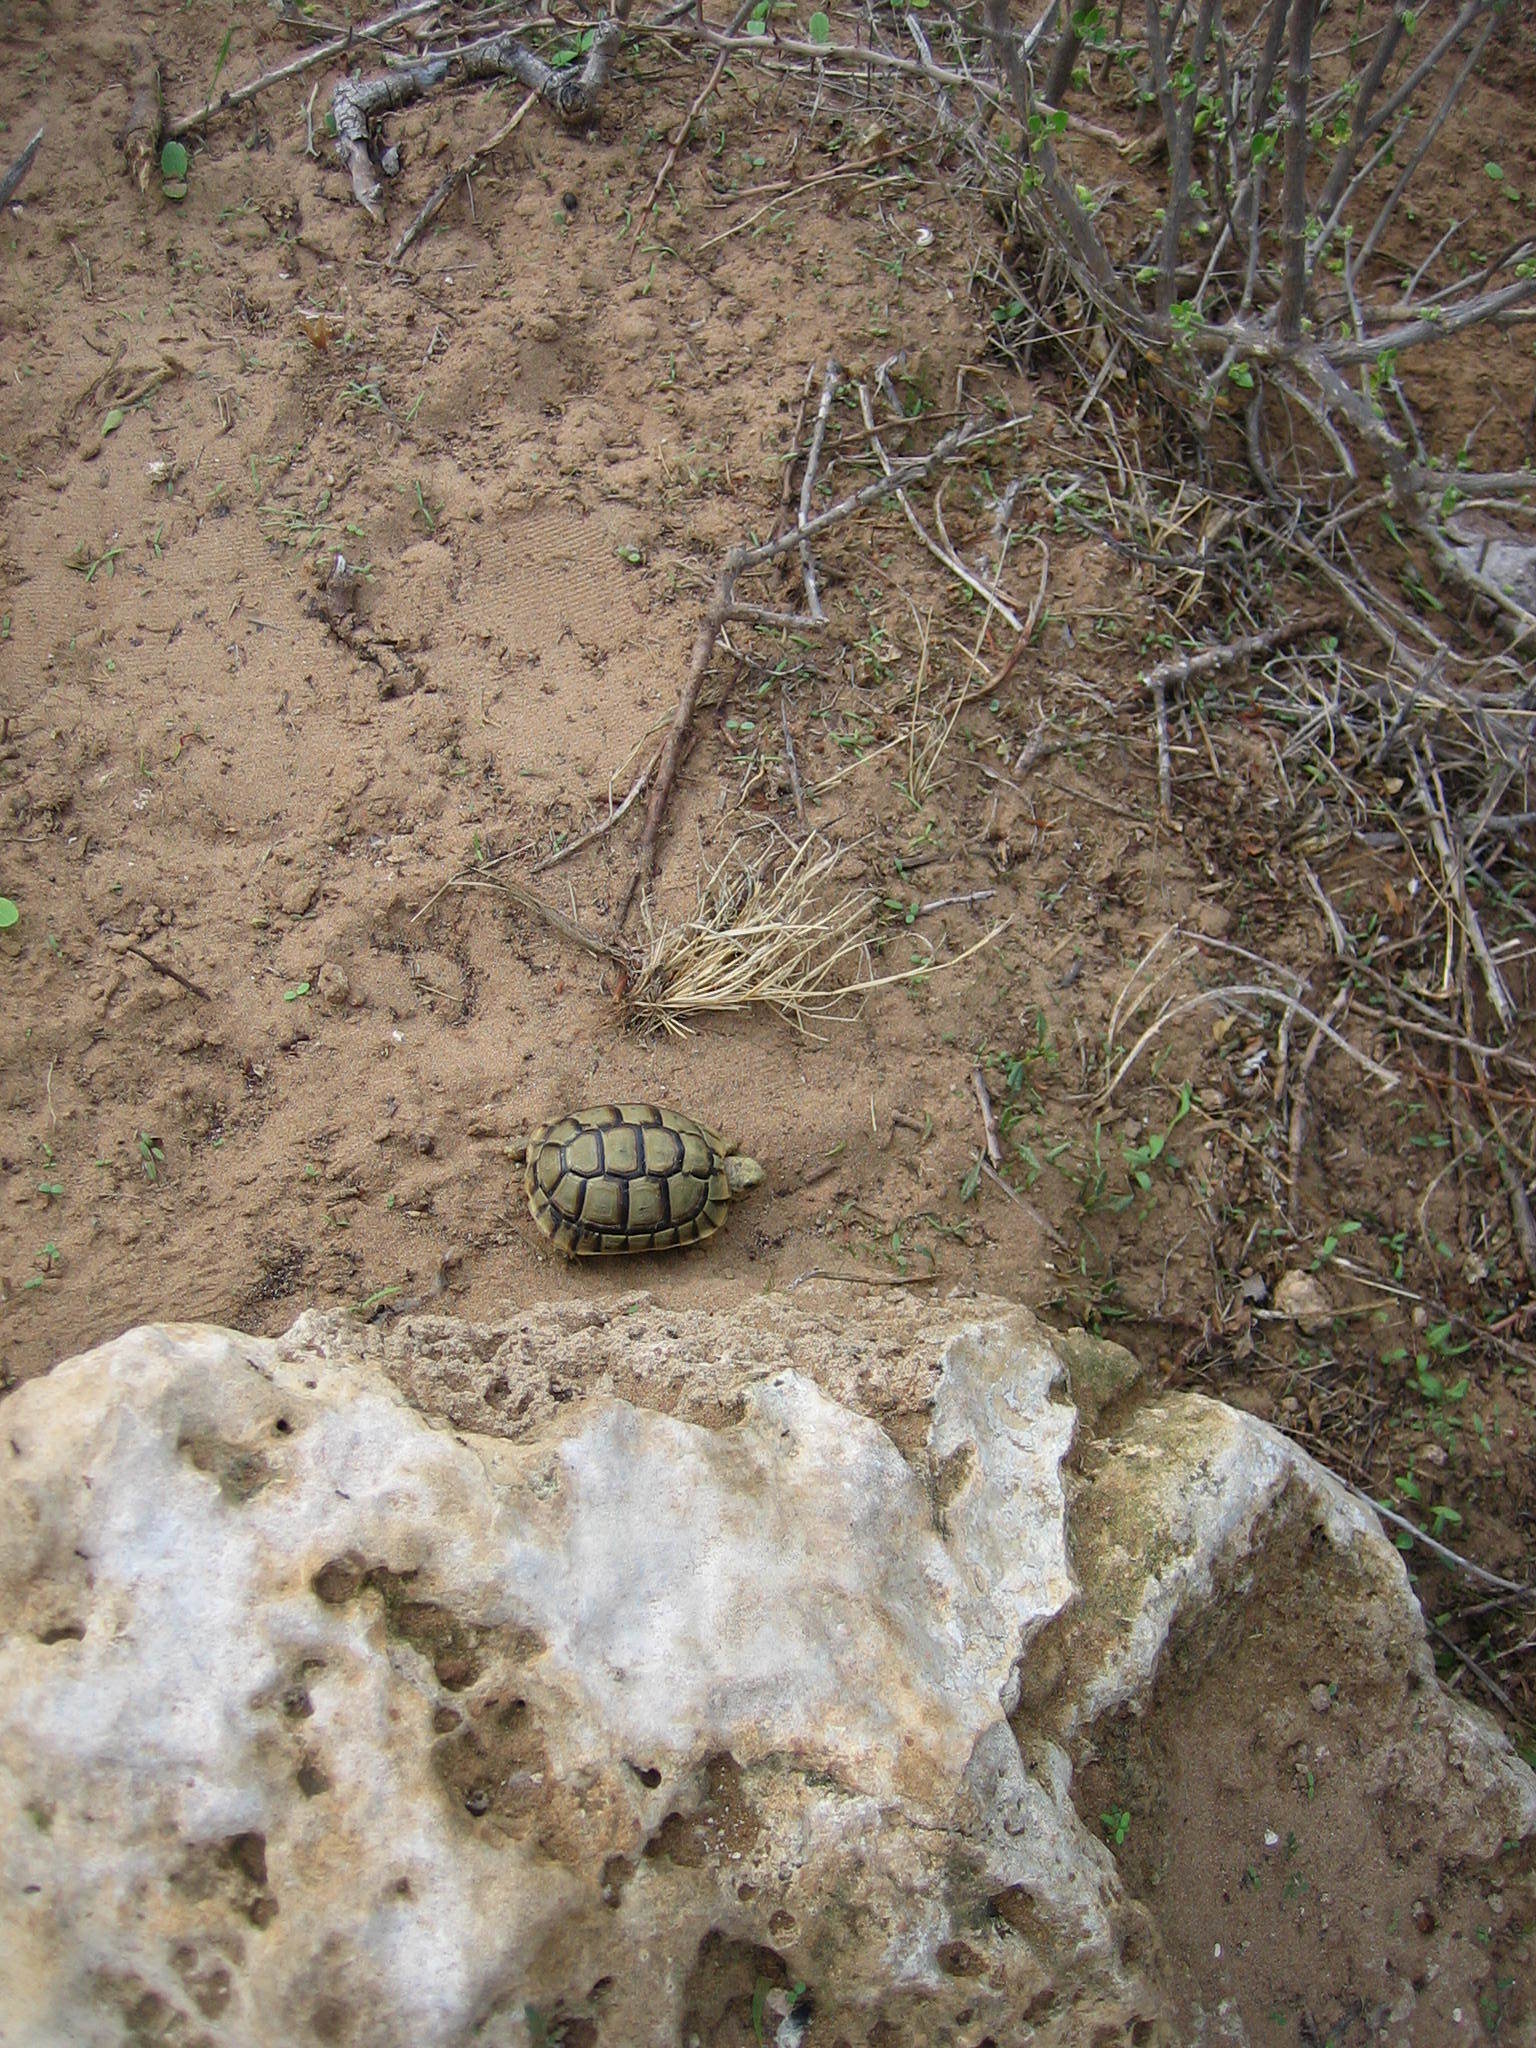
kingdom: Animalia
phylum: Chordata
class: Testudines
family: Testudinidae
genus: Testudo
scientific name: Testudo graeca
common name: Common tortoise
